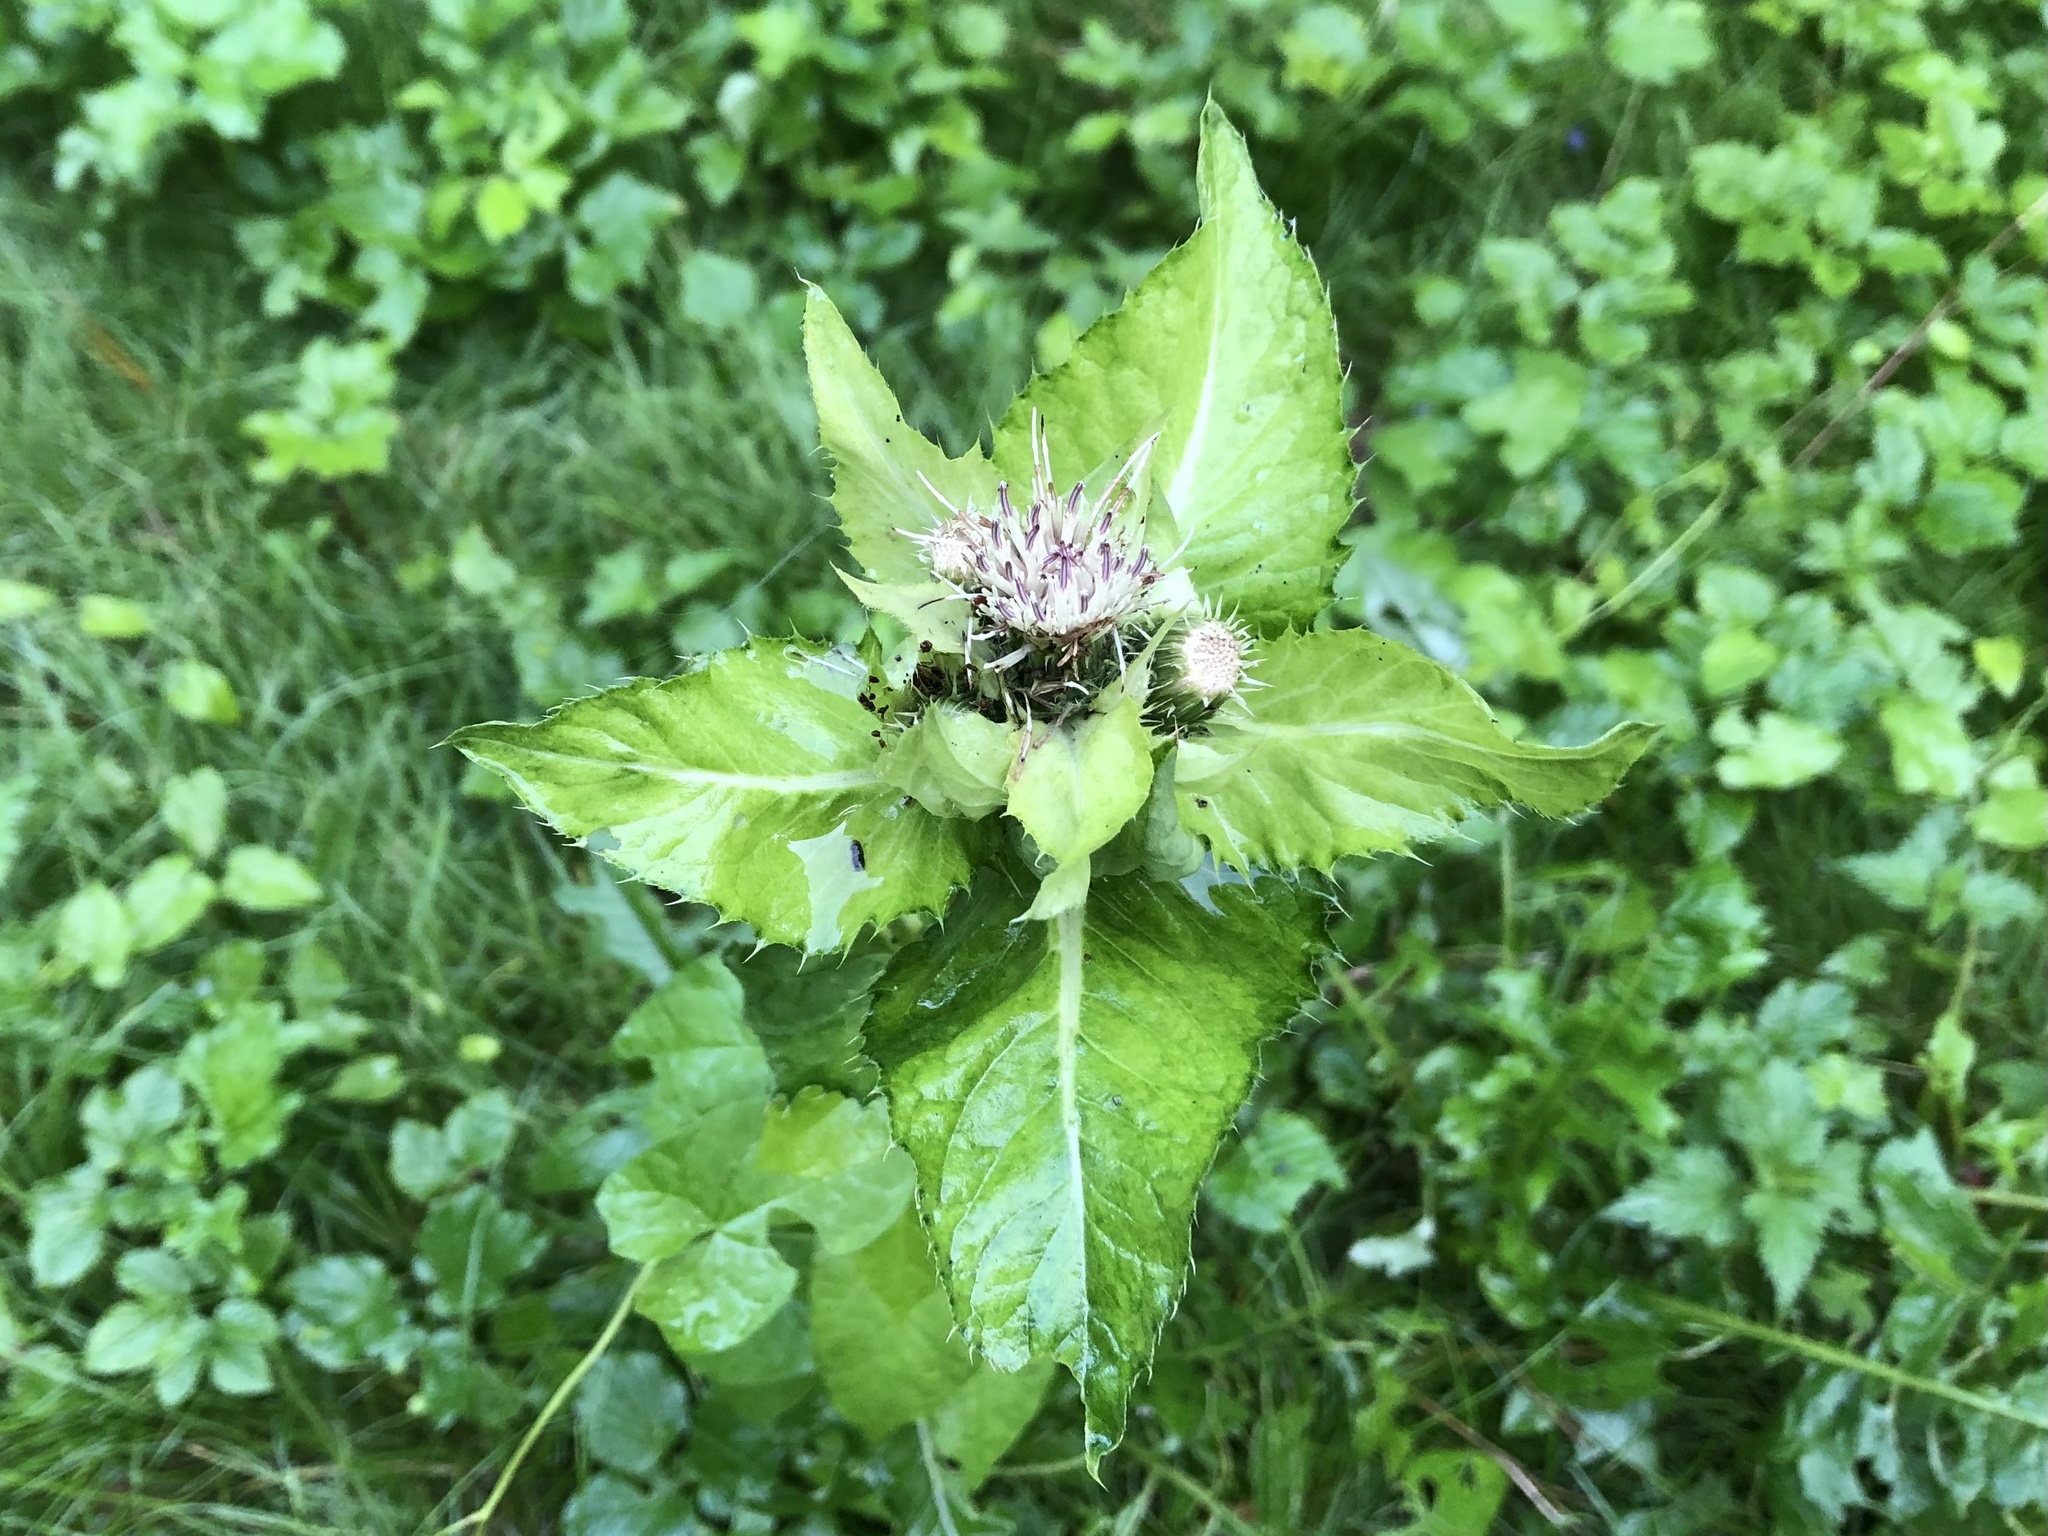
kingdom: Plantae
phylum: Tracheophyta
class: Magnoliopsida
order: Asterales
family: Asteraceae
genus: Cirsium
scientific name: Cirsium oleraceum
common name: Cabbage thistle
